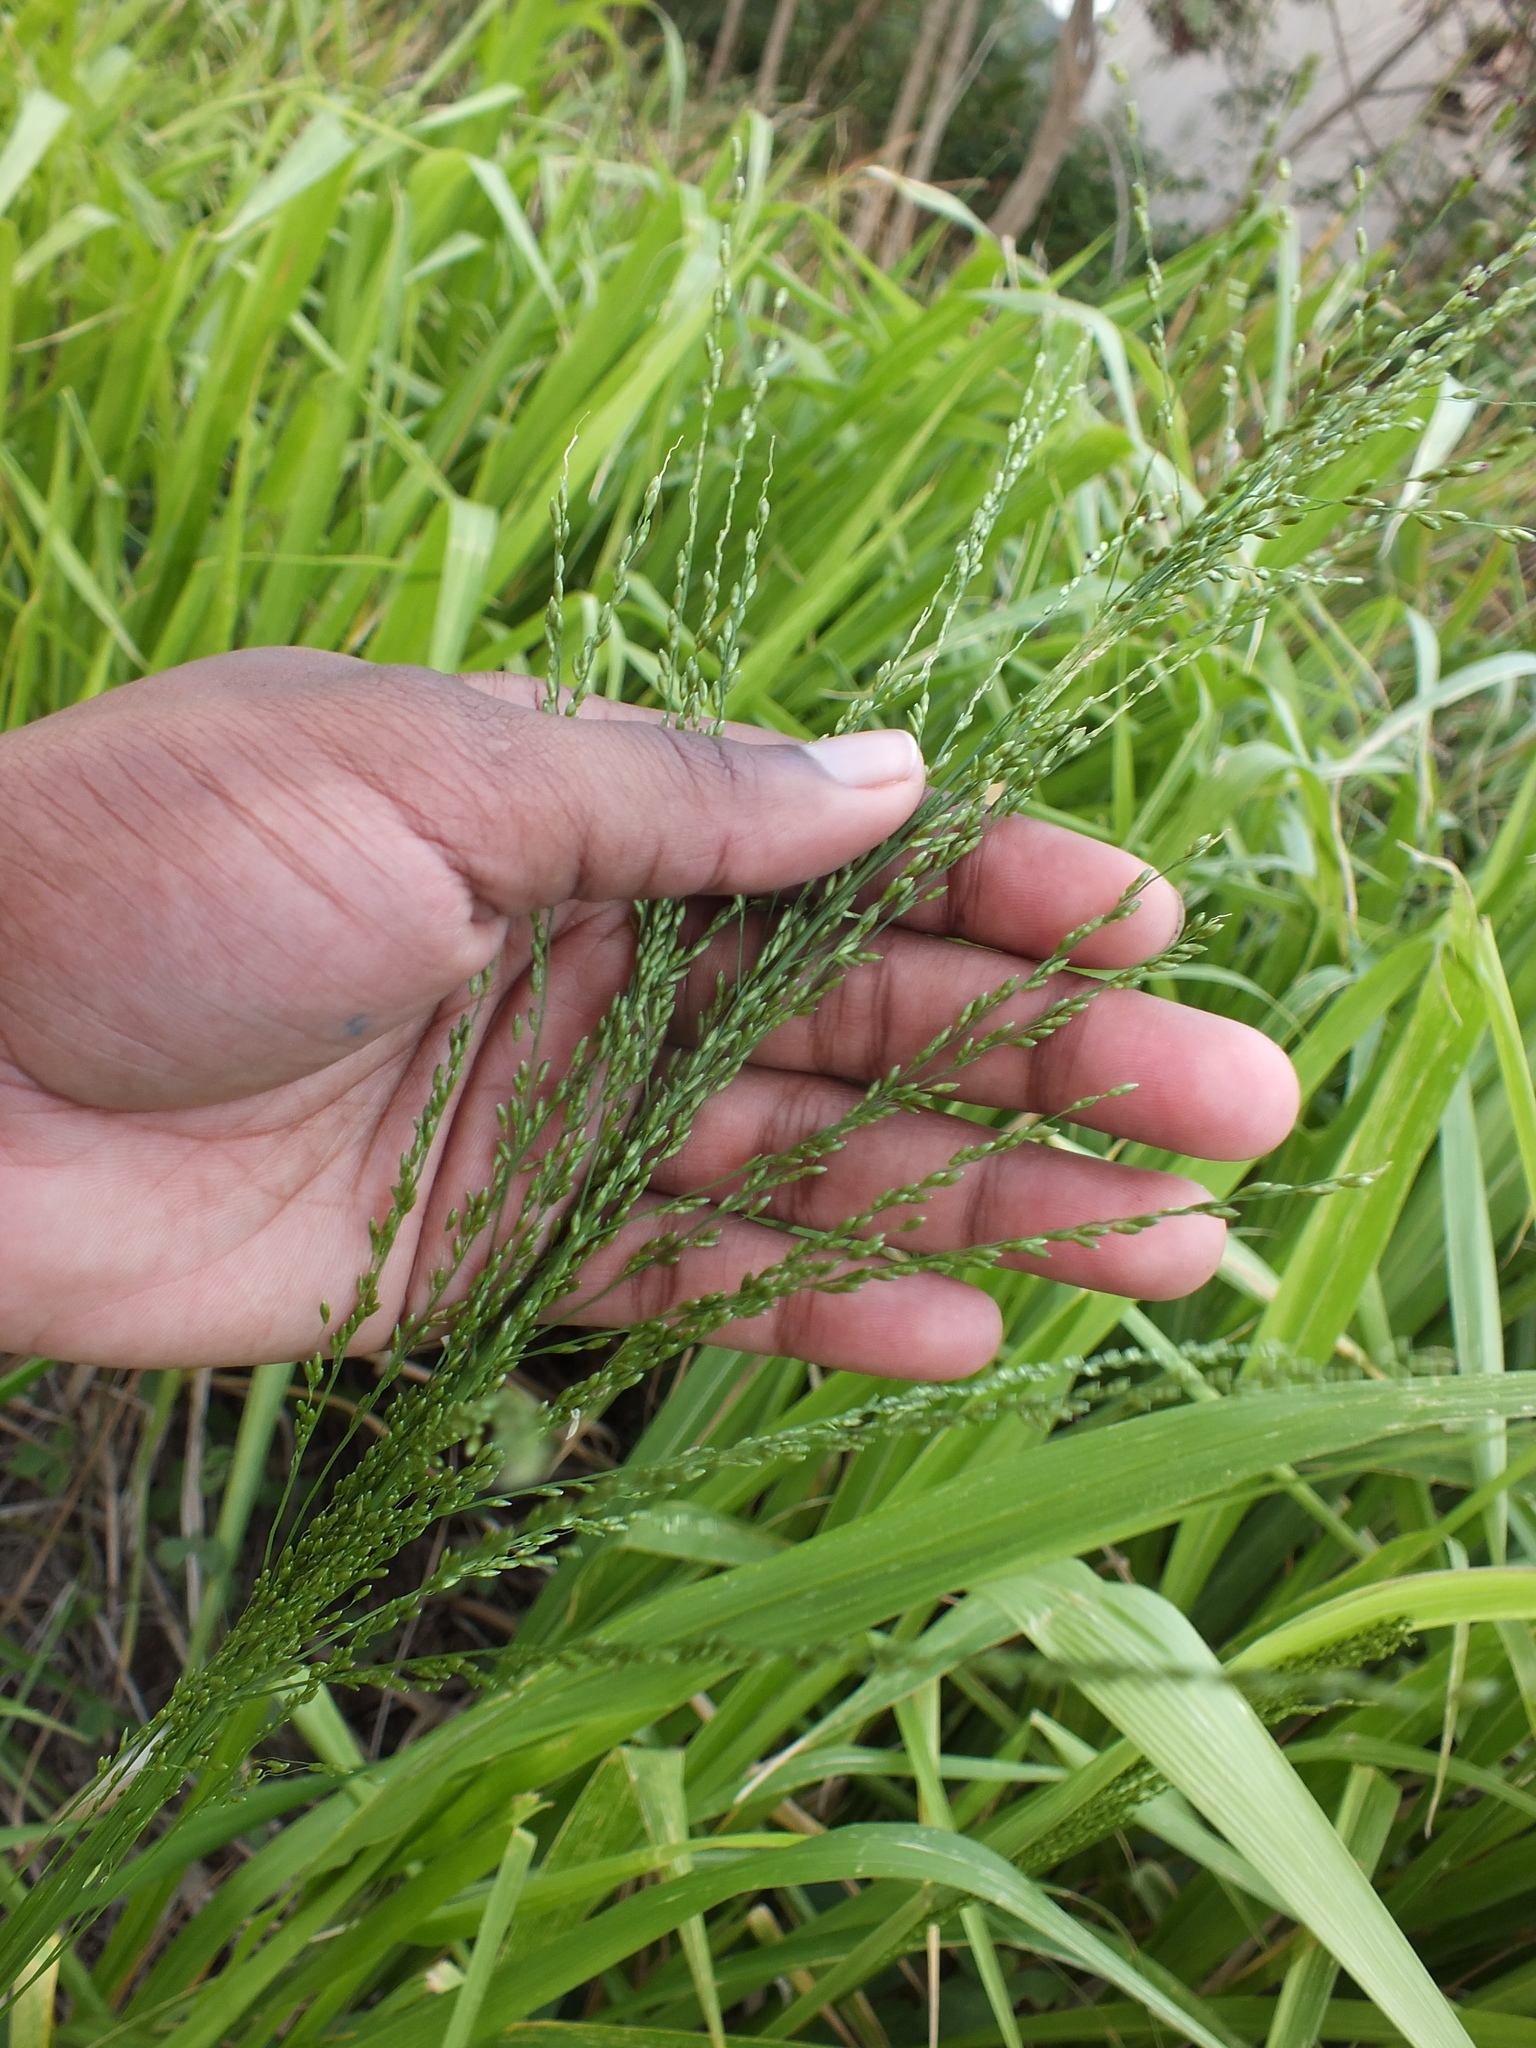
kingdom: Plantae
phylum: Tracheophyta
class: Liliopsida
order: Poales
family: Poaceae
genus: Megathyrsus
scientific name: Megathyrsus maximus
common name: Guineagrass
